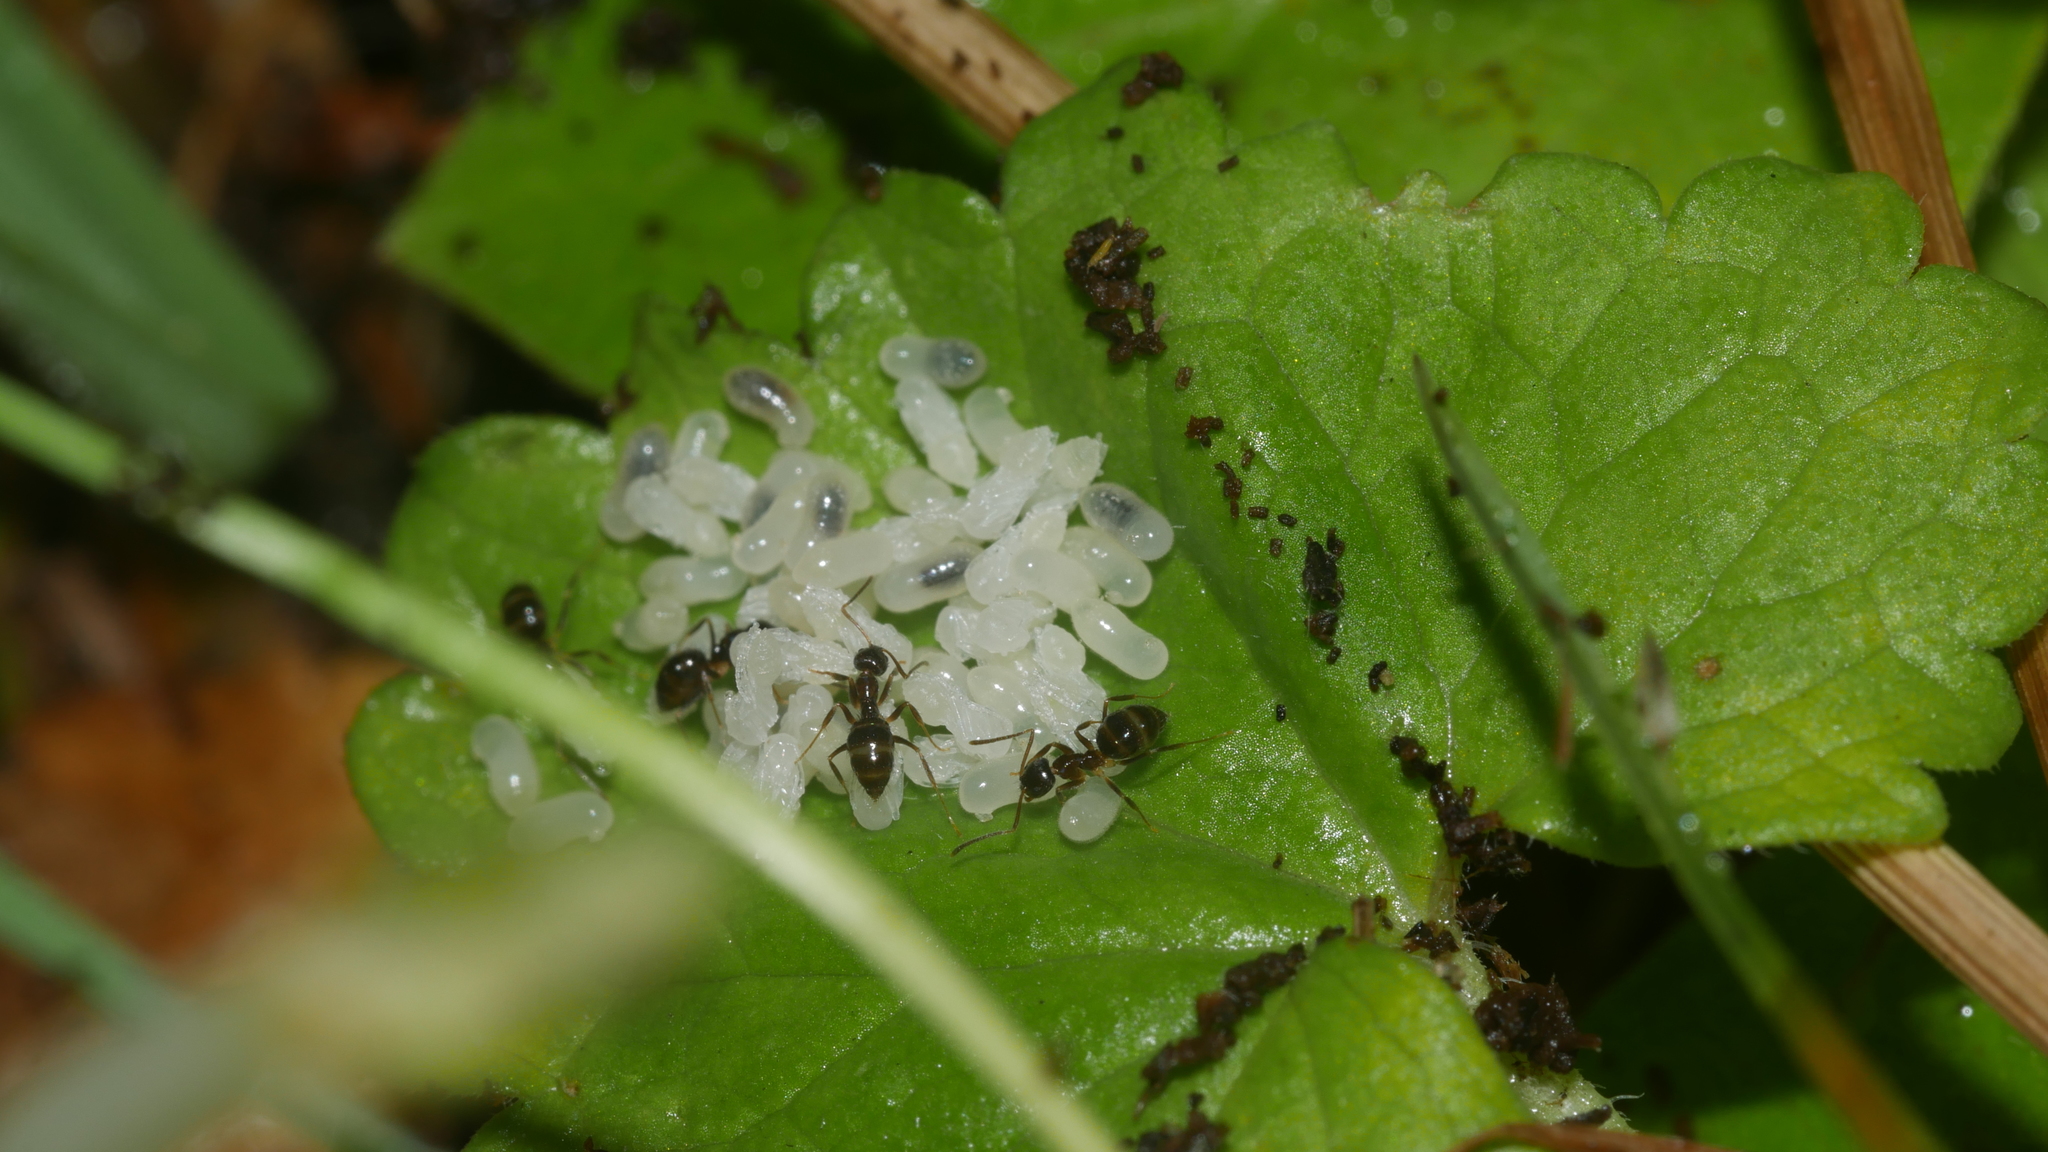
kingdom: Animalia
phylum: Arthropoda
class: Insecta
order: Hymenoptera
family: Formicidae
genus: Nylanderia
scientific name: Nylanderia faisonensis
